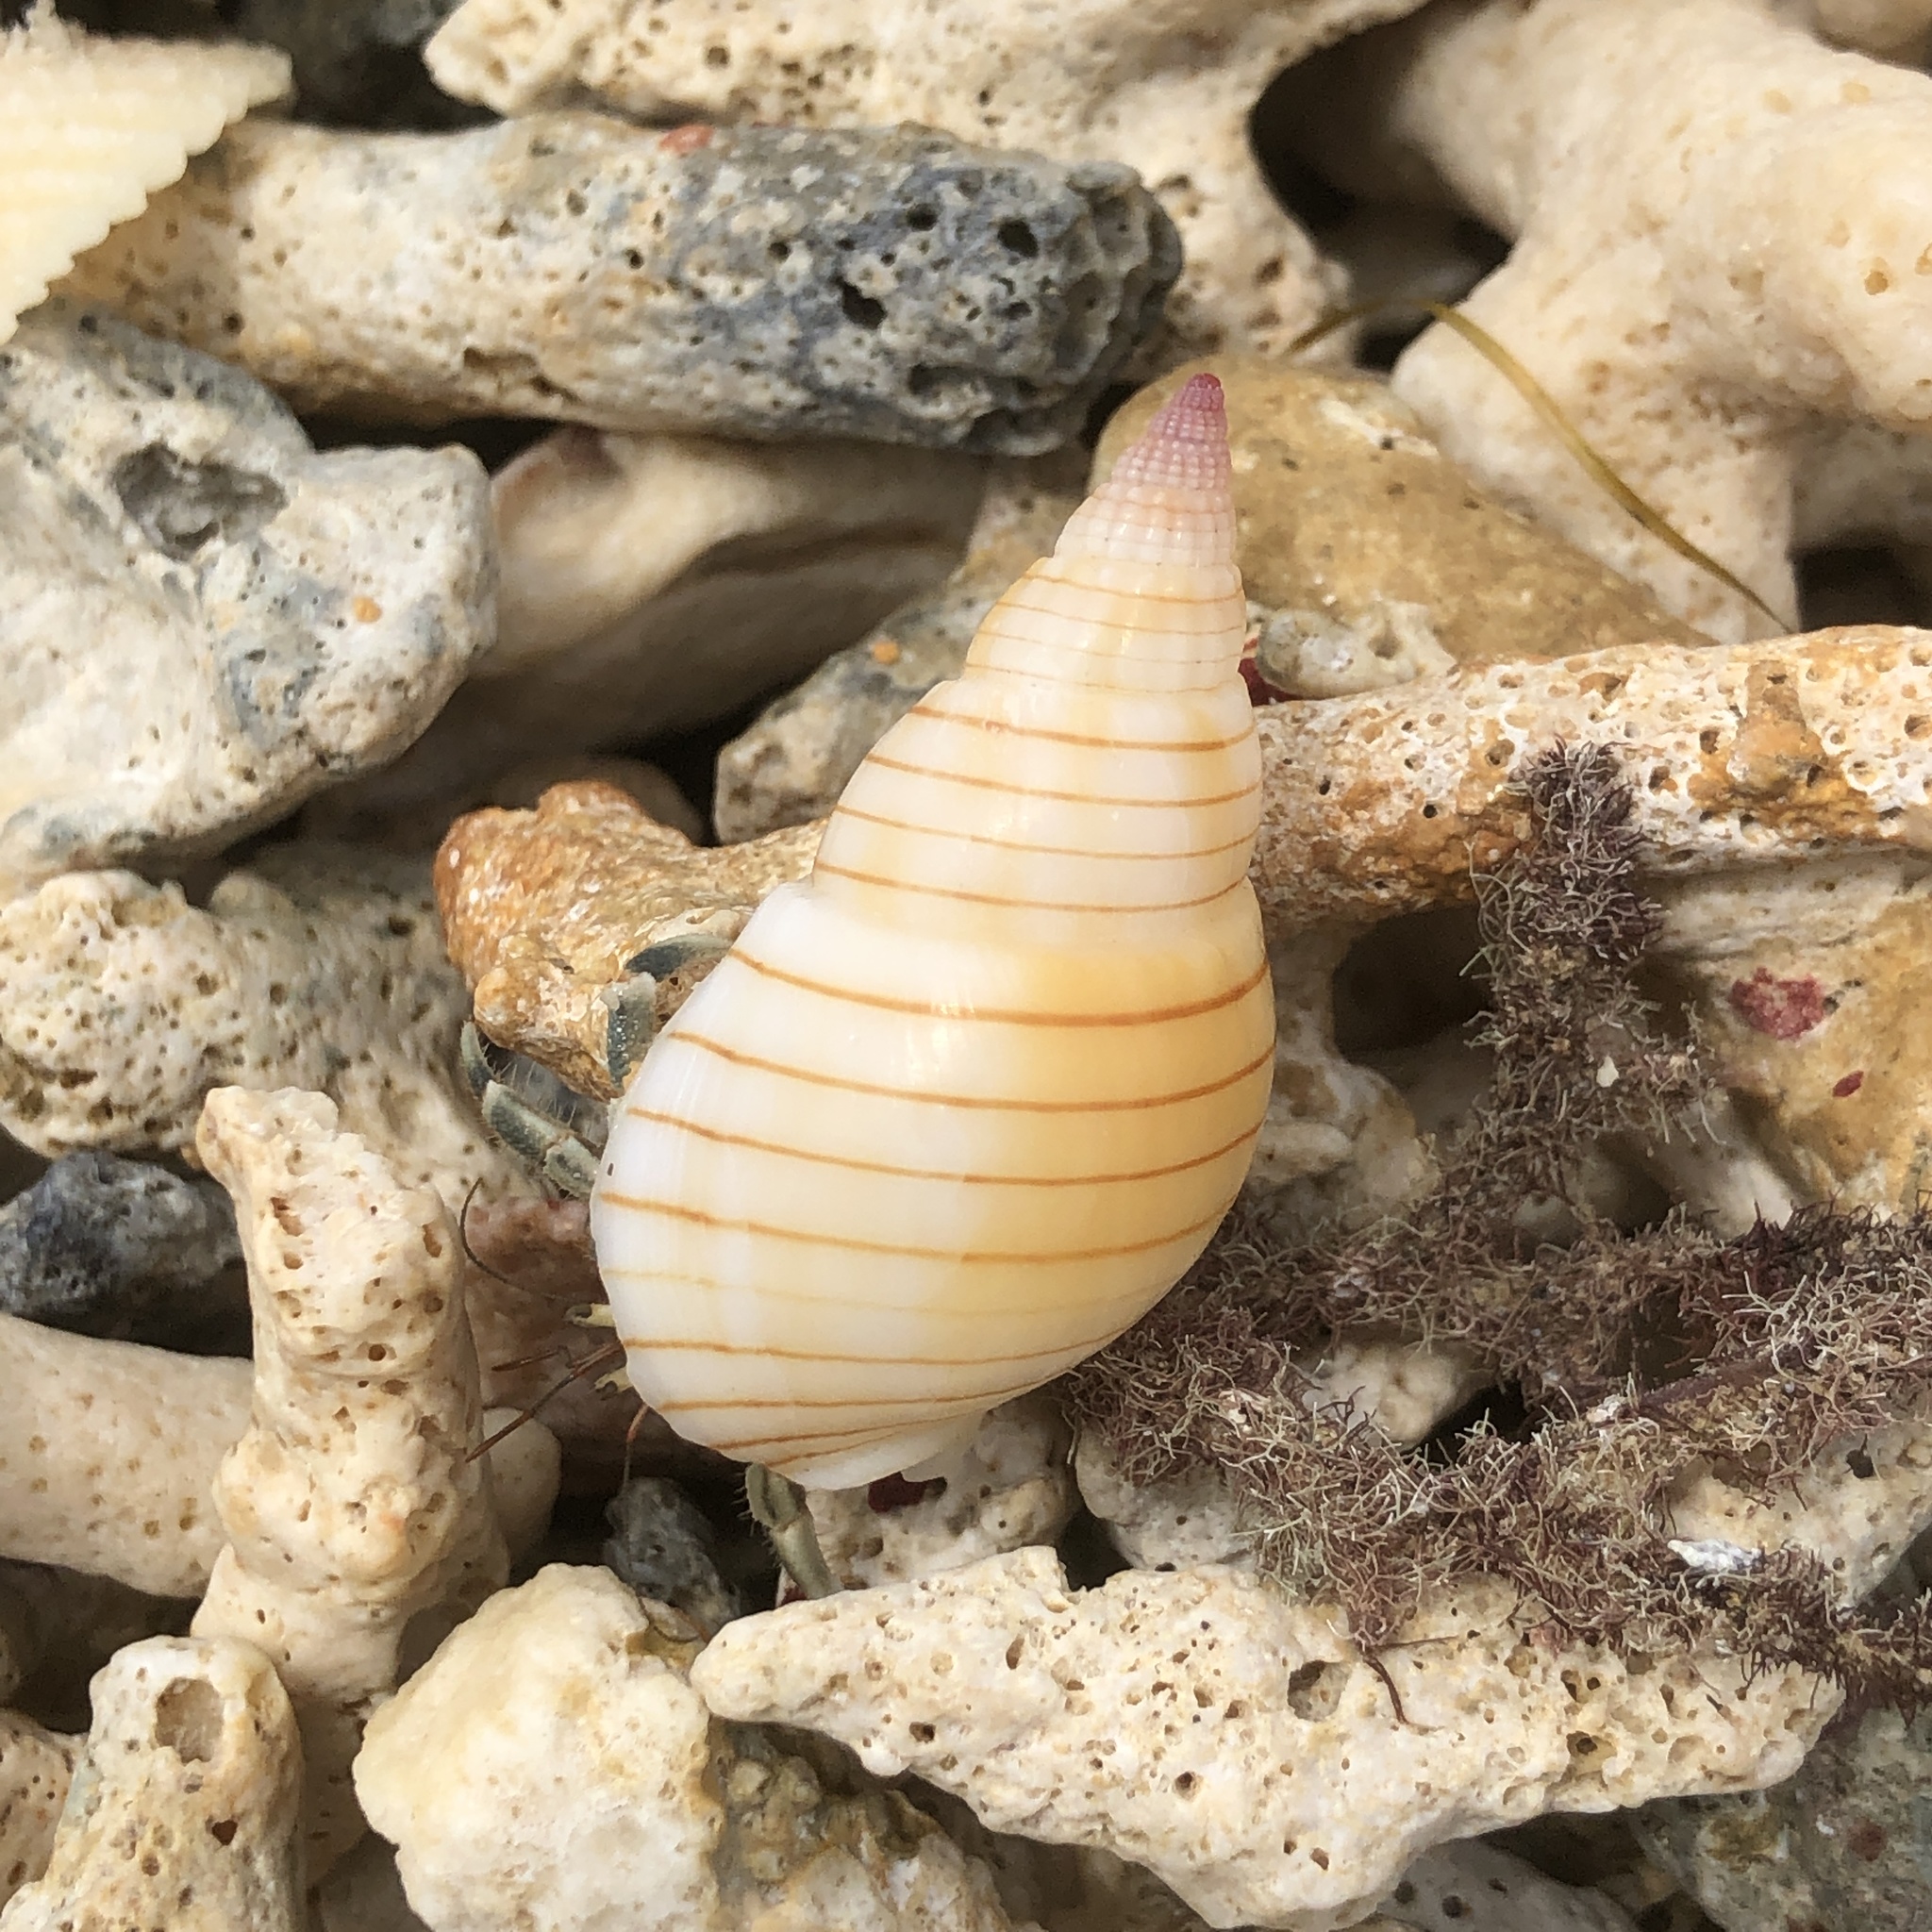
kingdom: Animalia
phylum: Mollusca
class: Gastropoda
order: Neogastropoda
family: Nassariidae
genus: Nassarius
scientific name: Nassarius glans
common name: Glans nassa
